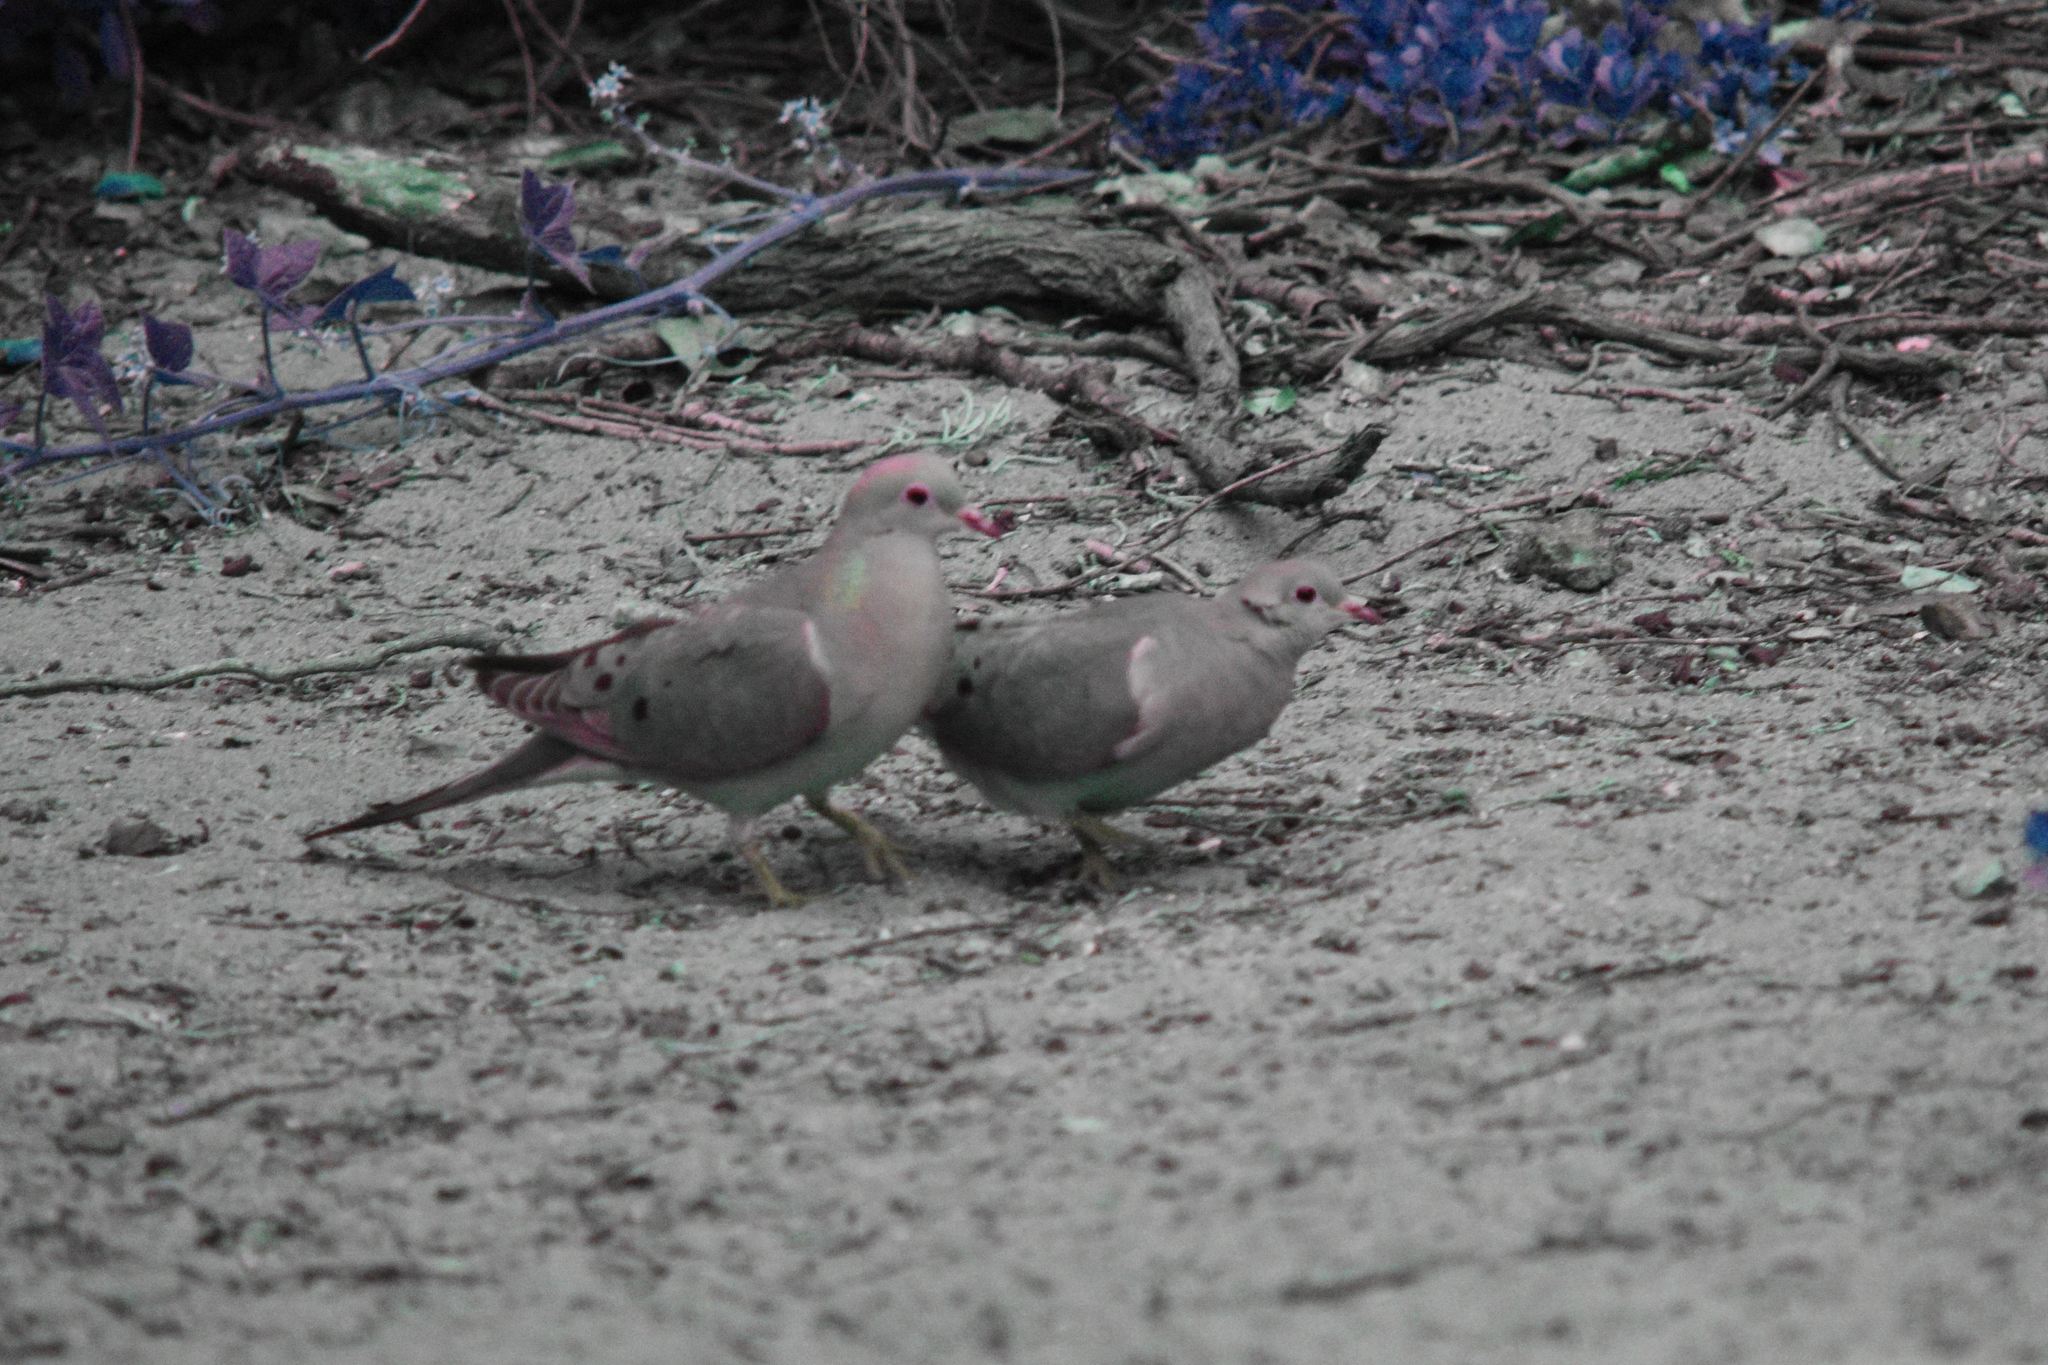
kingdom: Animalia
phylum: Chordata
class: Aves
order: Columbiformes
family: Columbidae
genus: Zenaida
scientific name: Zenaida macroura
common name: Mourning dove
